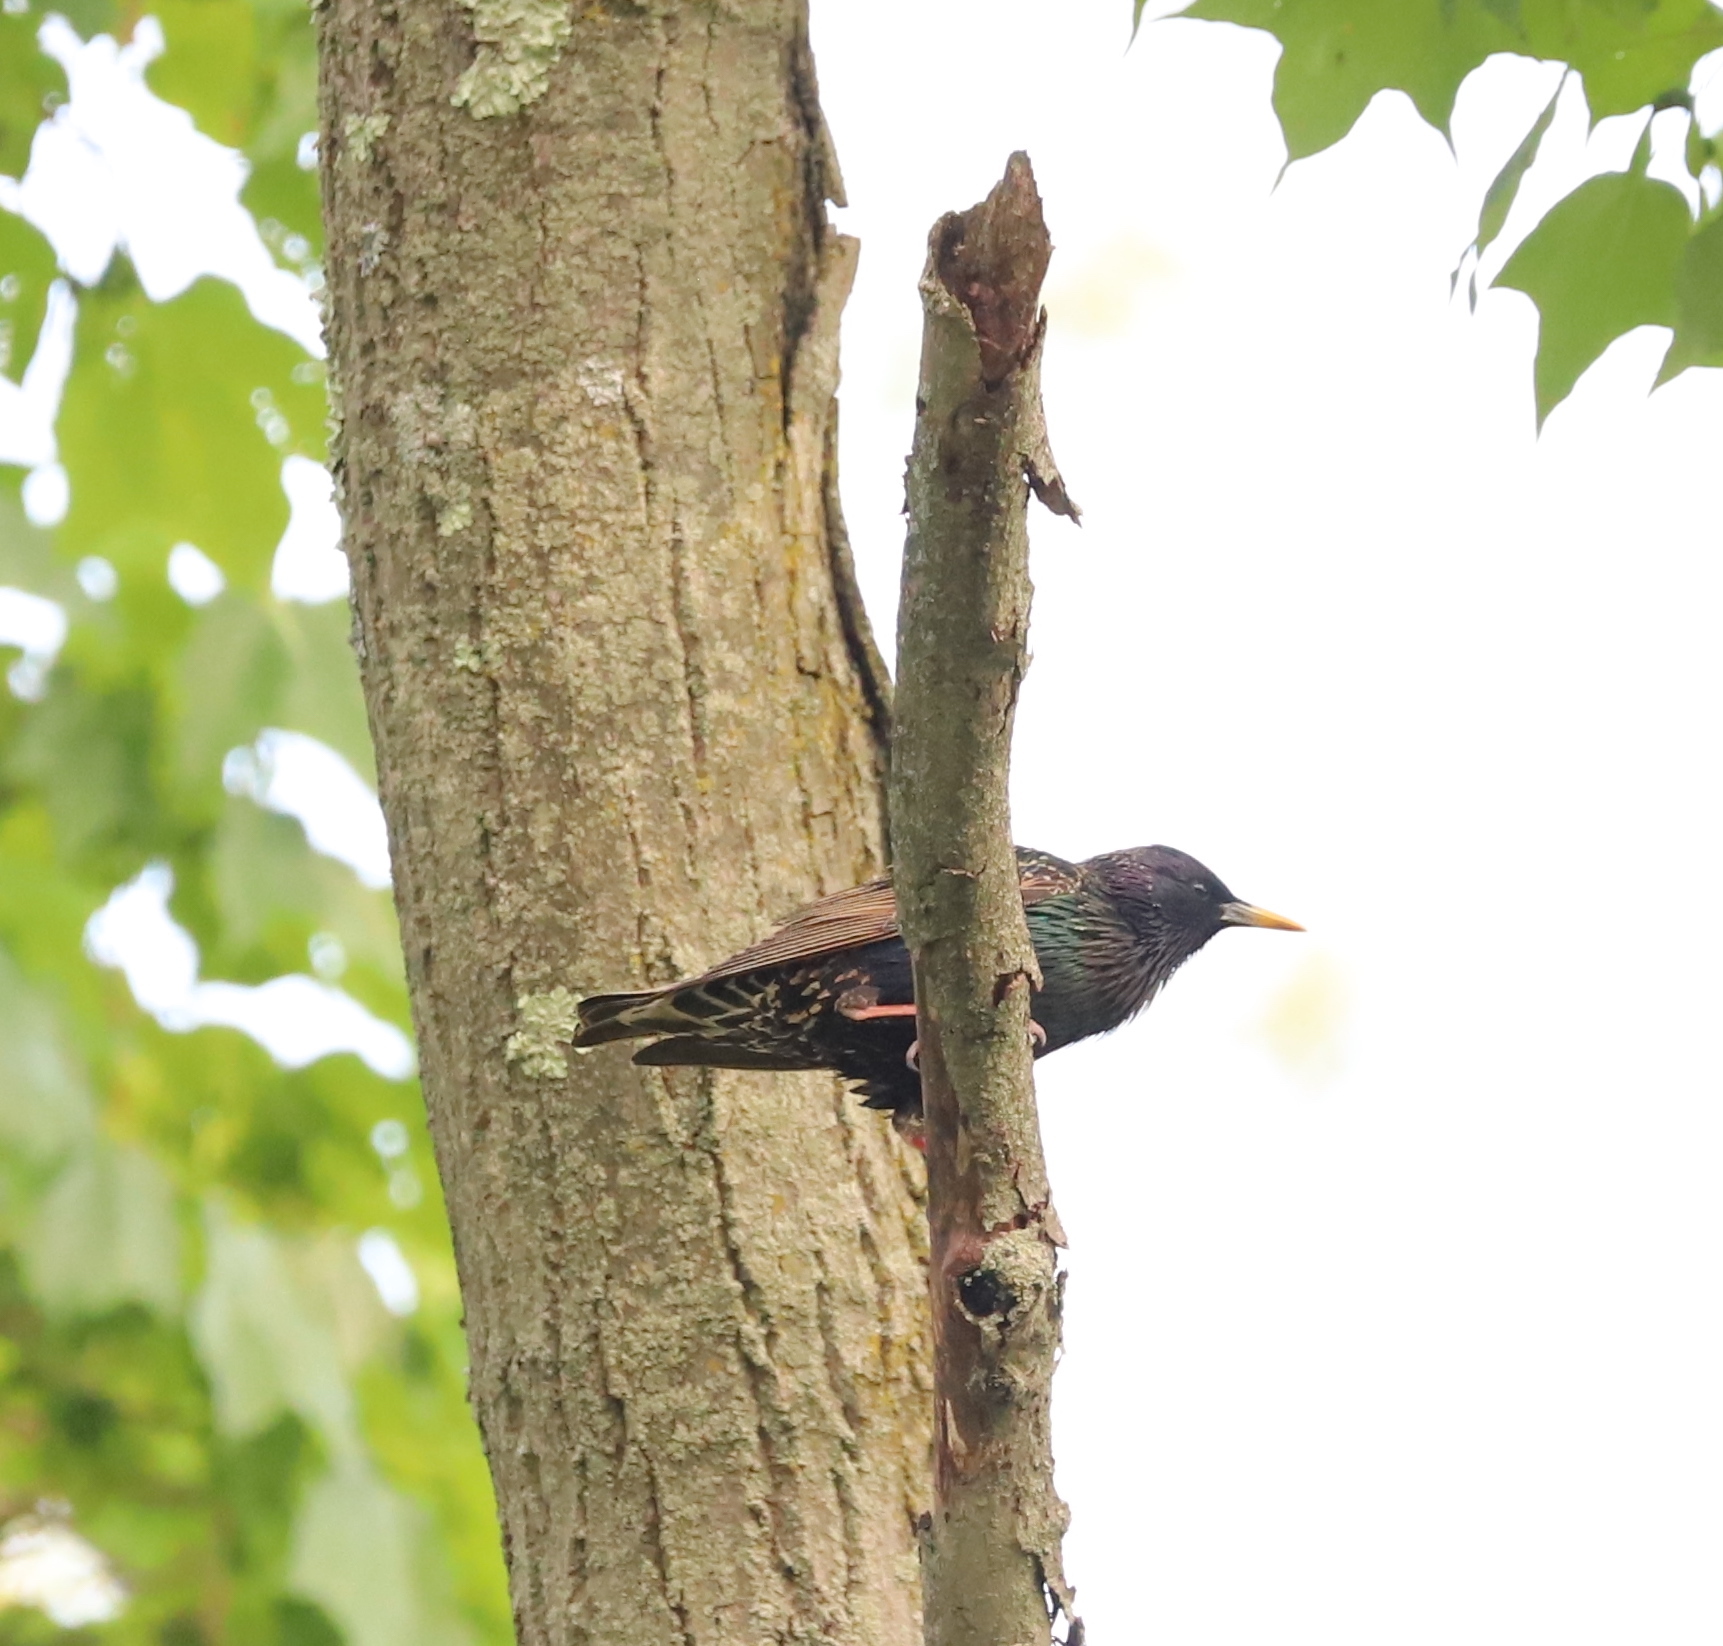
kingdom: Animalia
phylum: Chordata
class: Aves
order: Passeriformes
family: Sturnidae
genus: Sturnus
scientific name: Sturnus vulgaris
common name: Common starling
